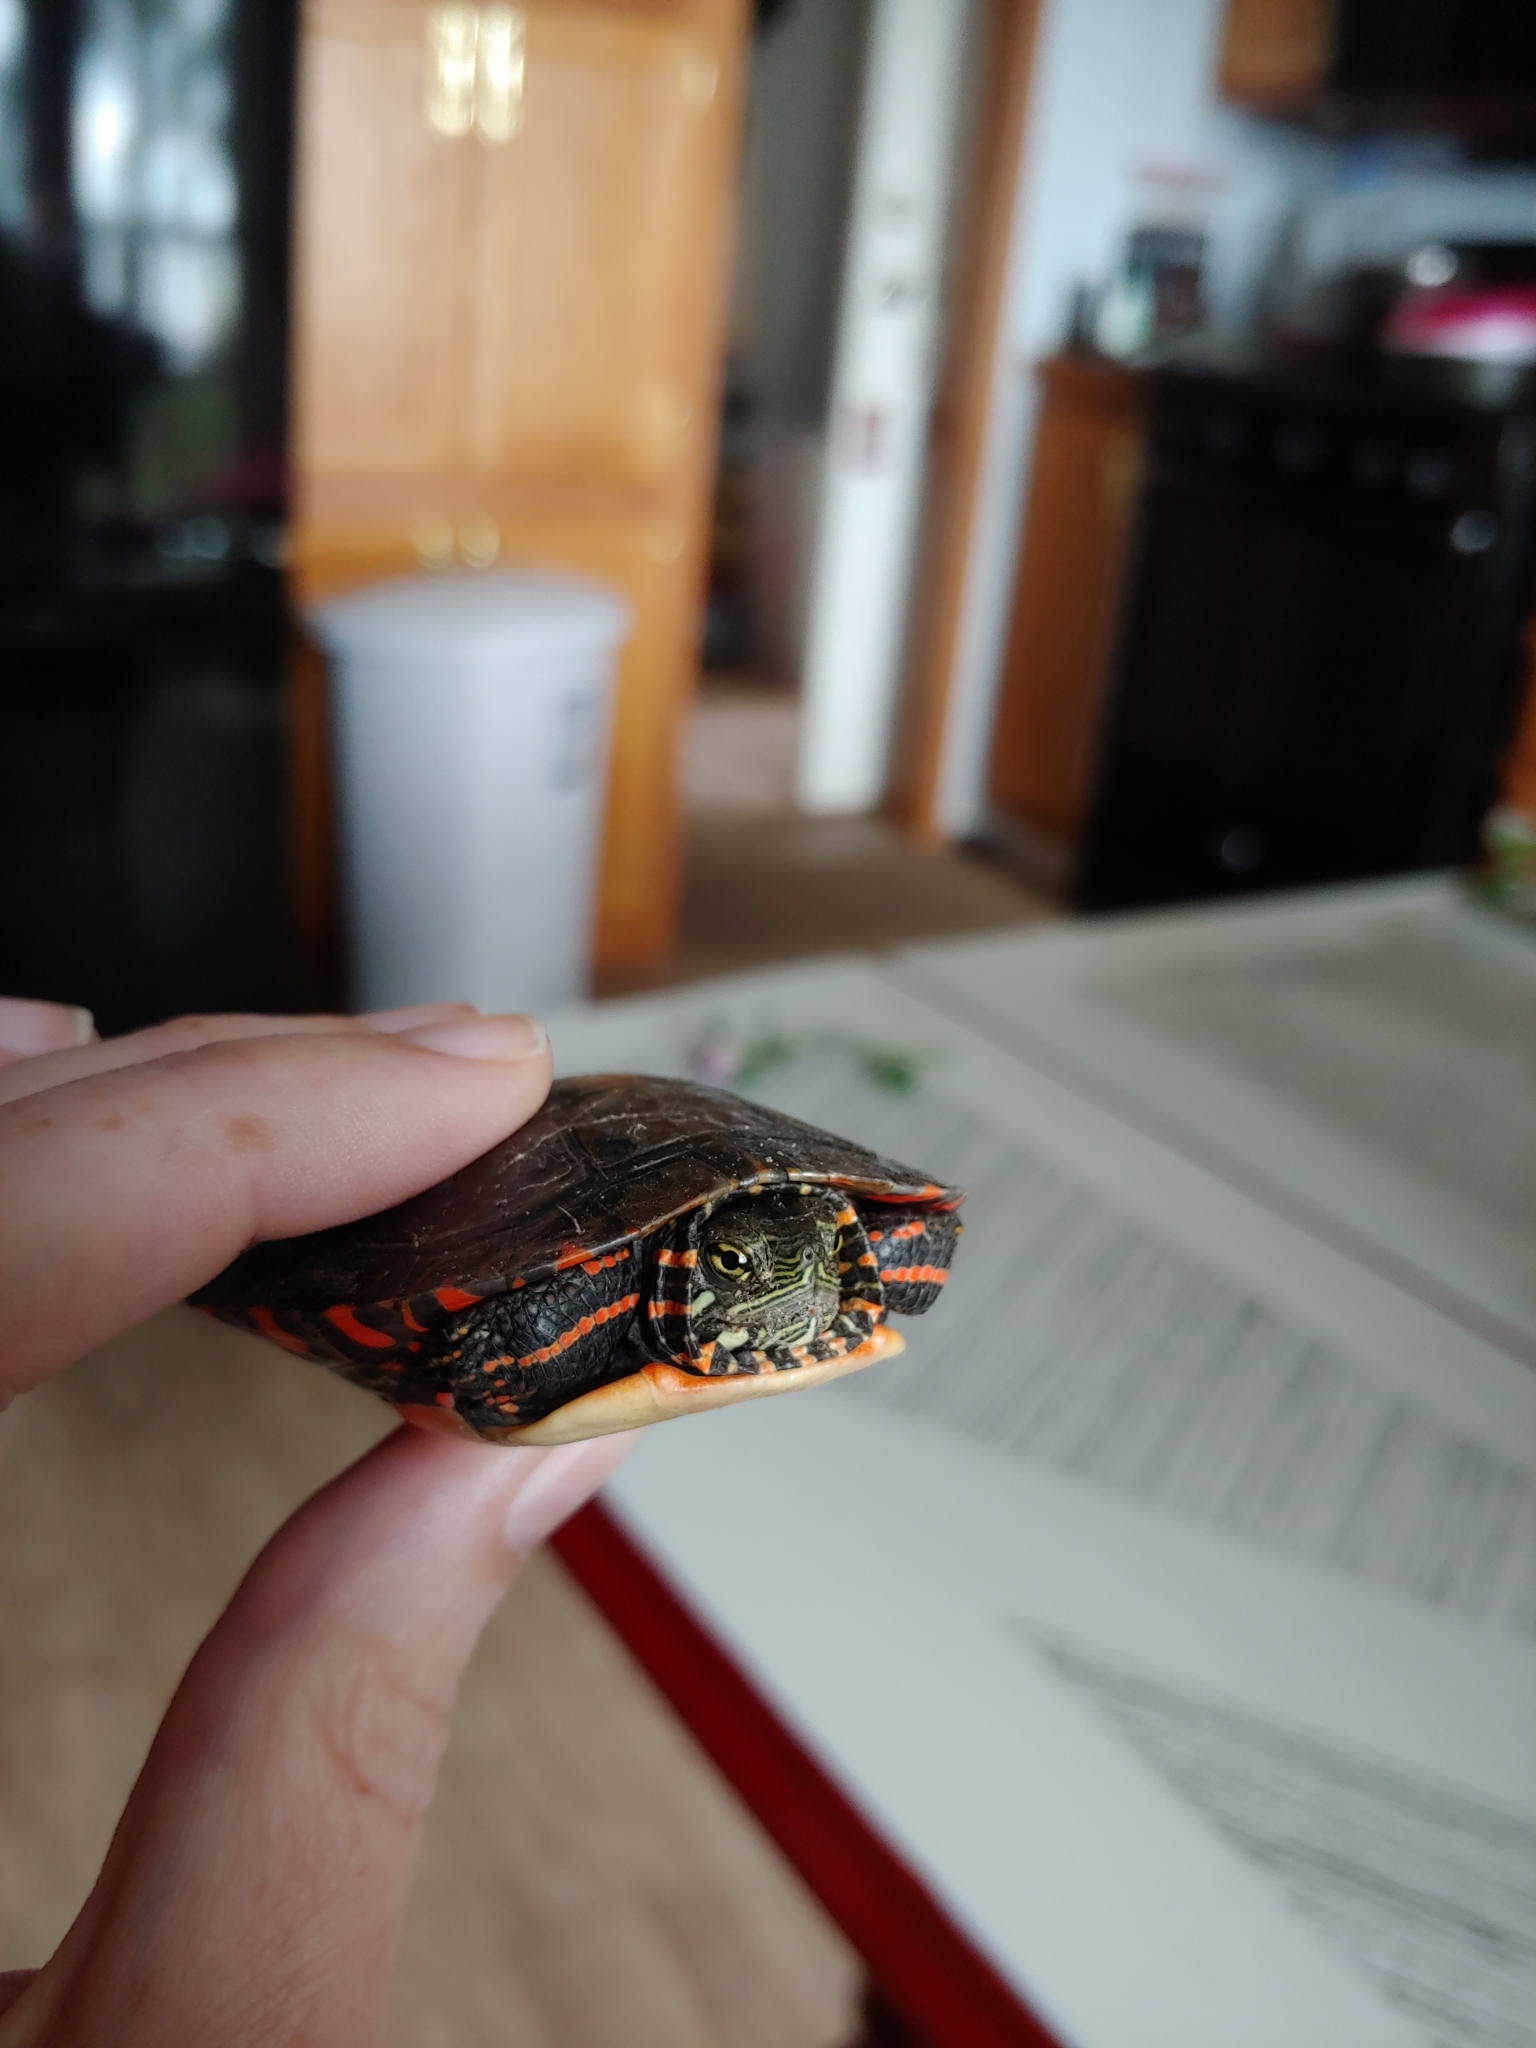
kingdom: Animalia
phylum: Chordata
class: Testudines
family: Emydidae
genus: Chrysemys
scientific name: Chrysemys picta
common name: Painted turtle
